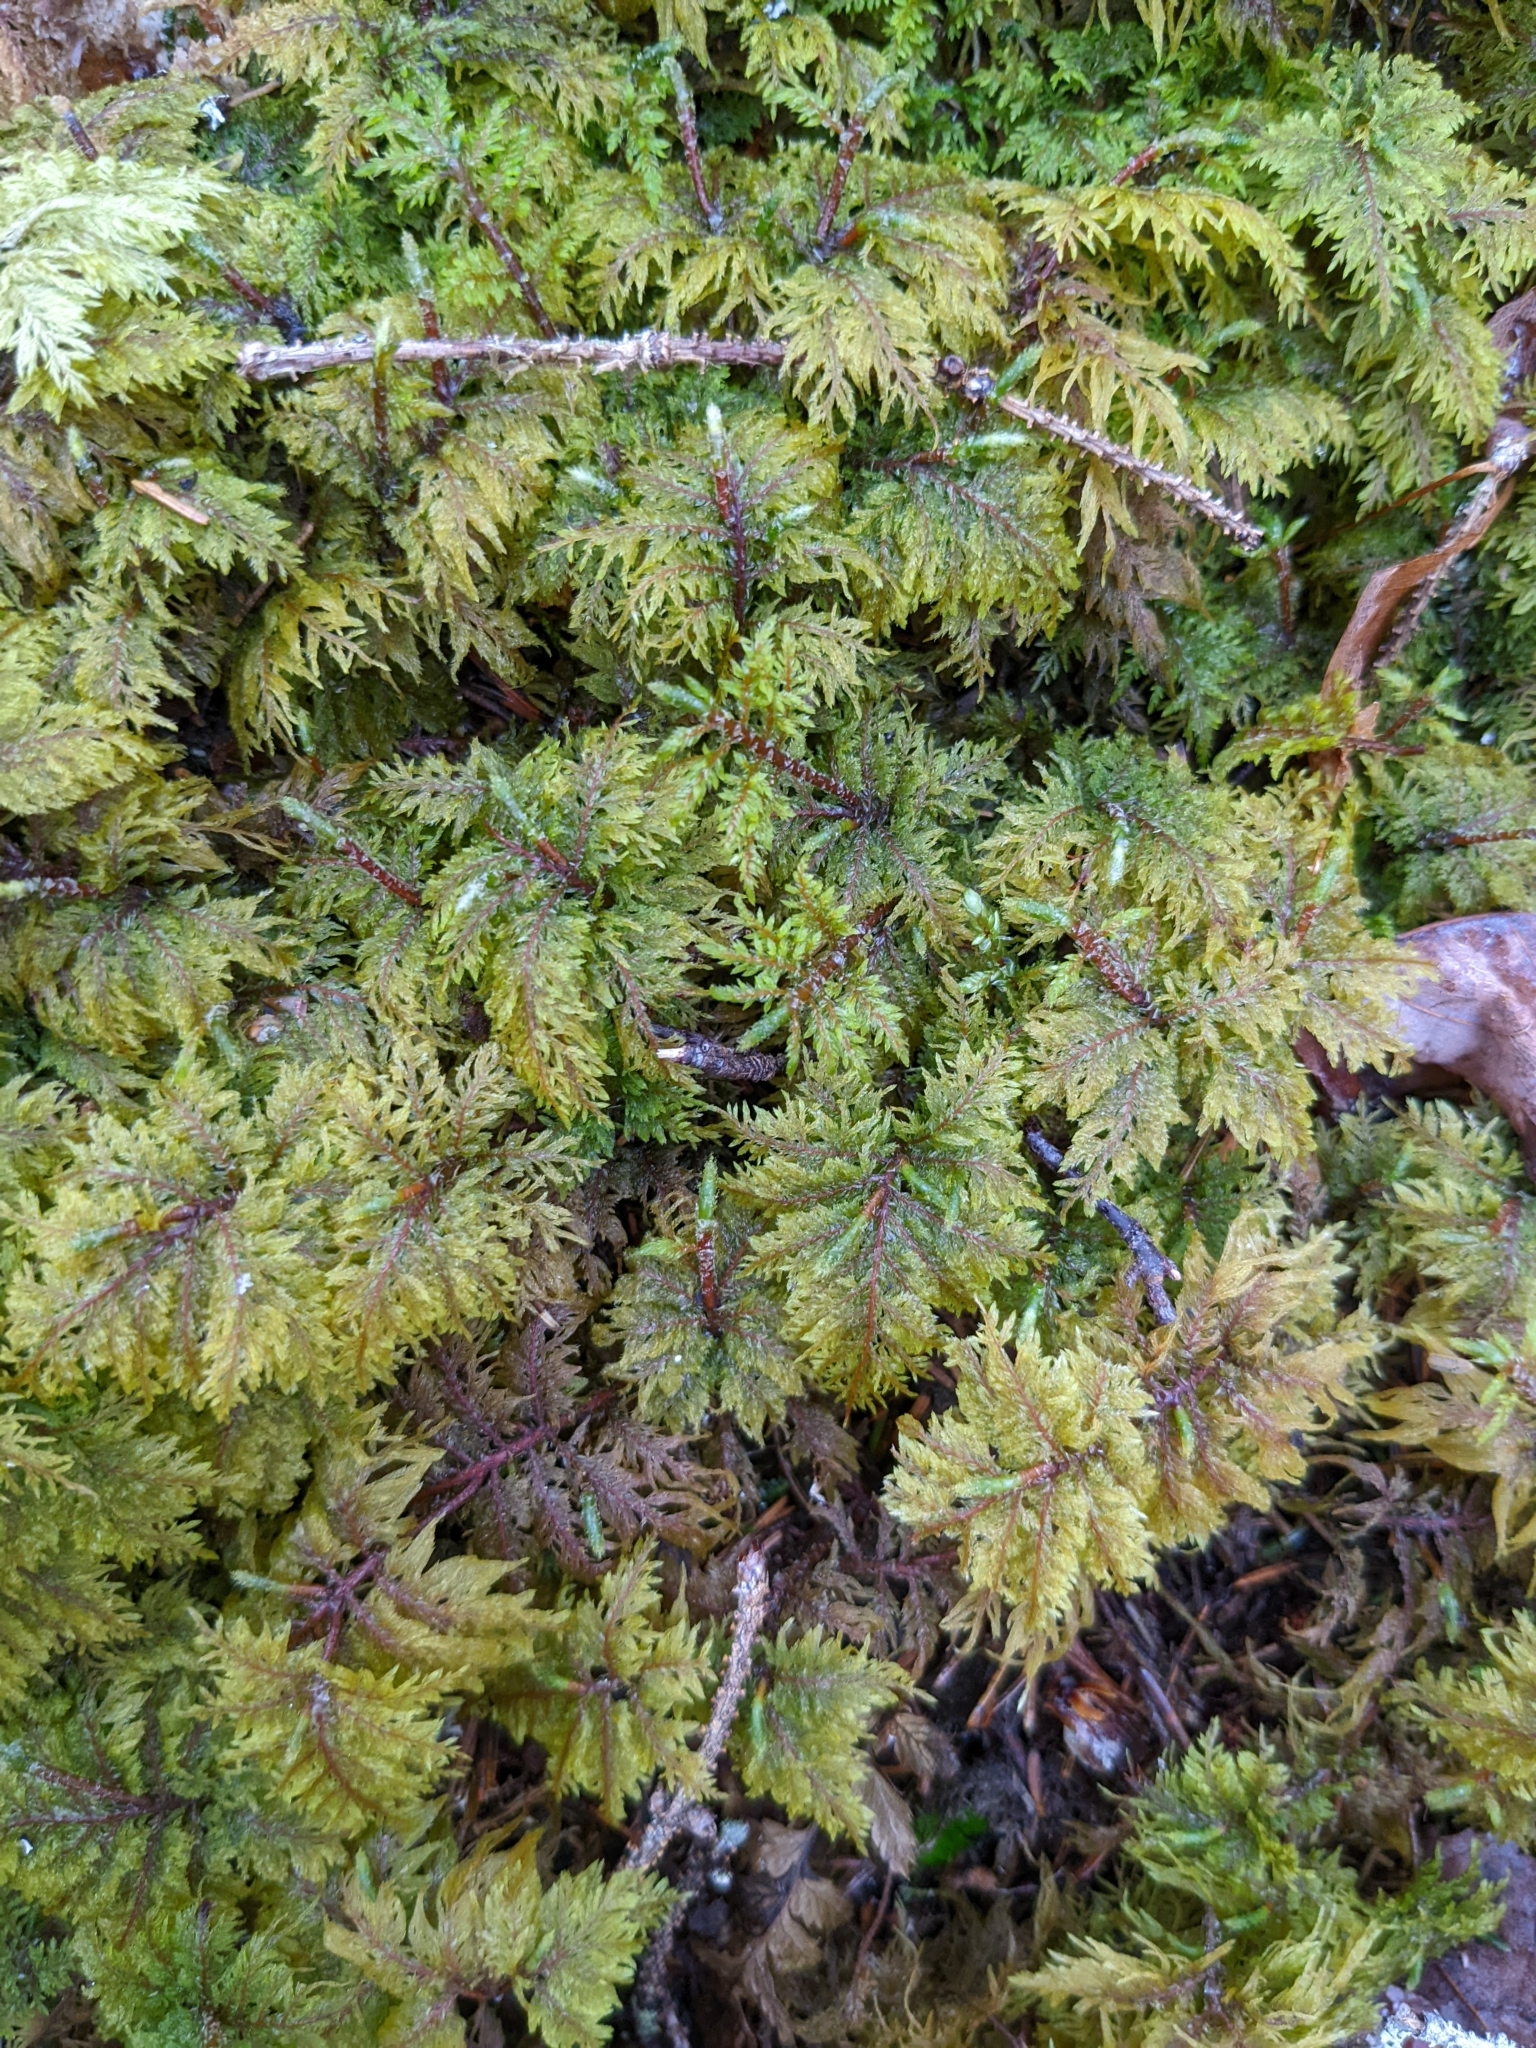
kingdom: Plantae
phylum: Bryophyta
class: Bryopsida
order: Hypnales
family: Hylocomiaceae
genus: Hylocomium
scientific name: Hylocomium splendens
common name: Stairstep moss
